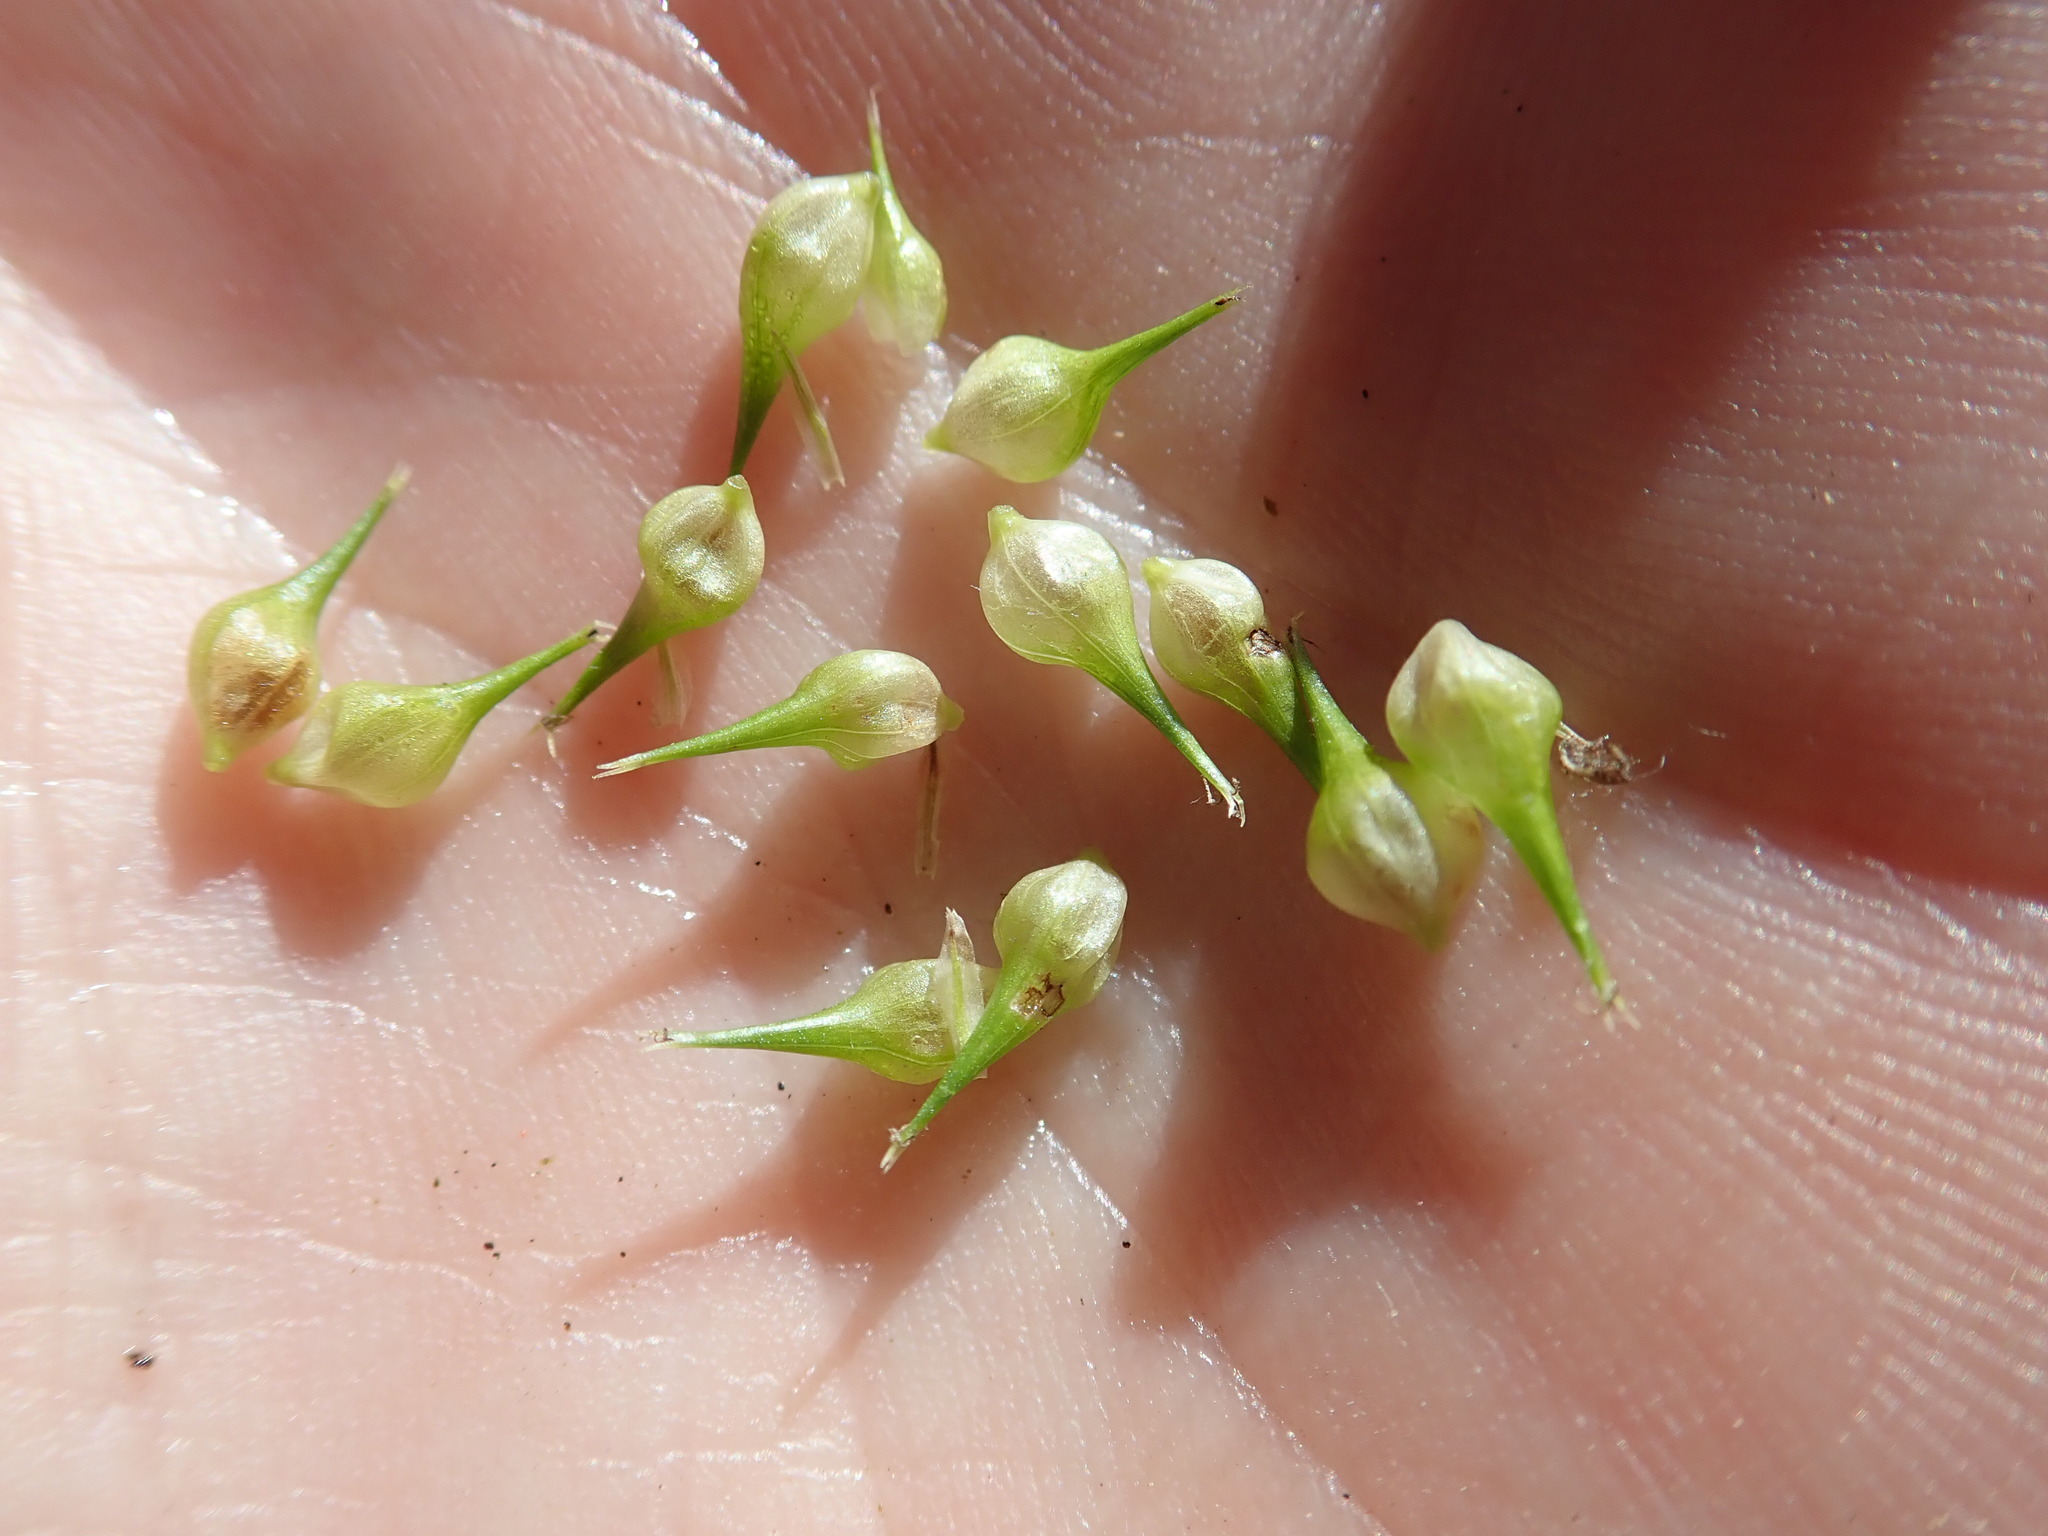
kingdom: Plantae
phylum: Tracheophyta
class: Liliopsida
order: Poales
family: Cyperaceae
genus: Carex
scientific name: Carex retrorsa
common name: Knot-sheath sedge
